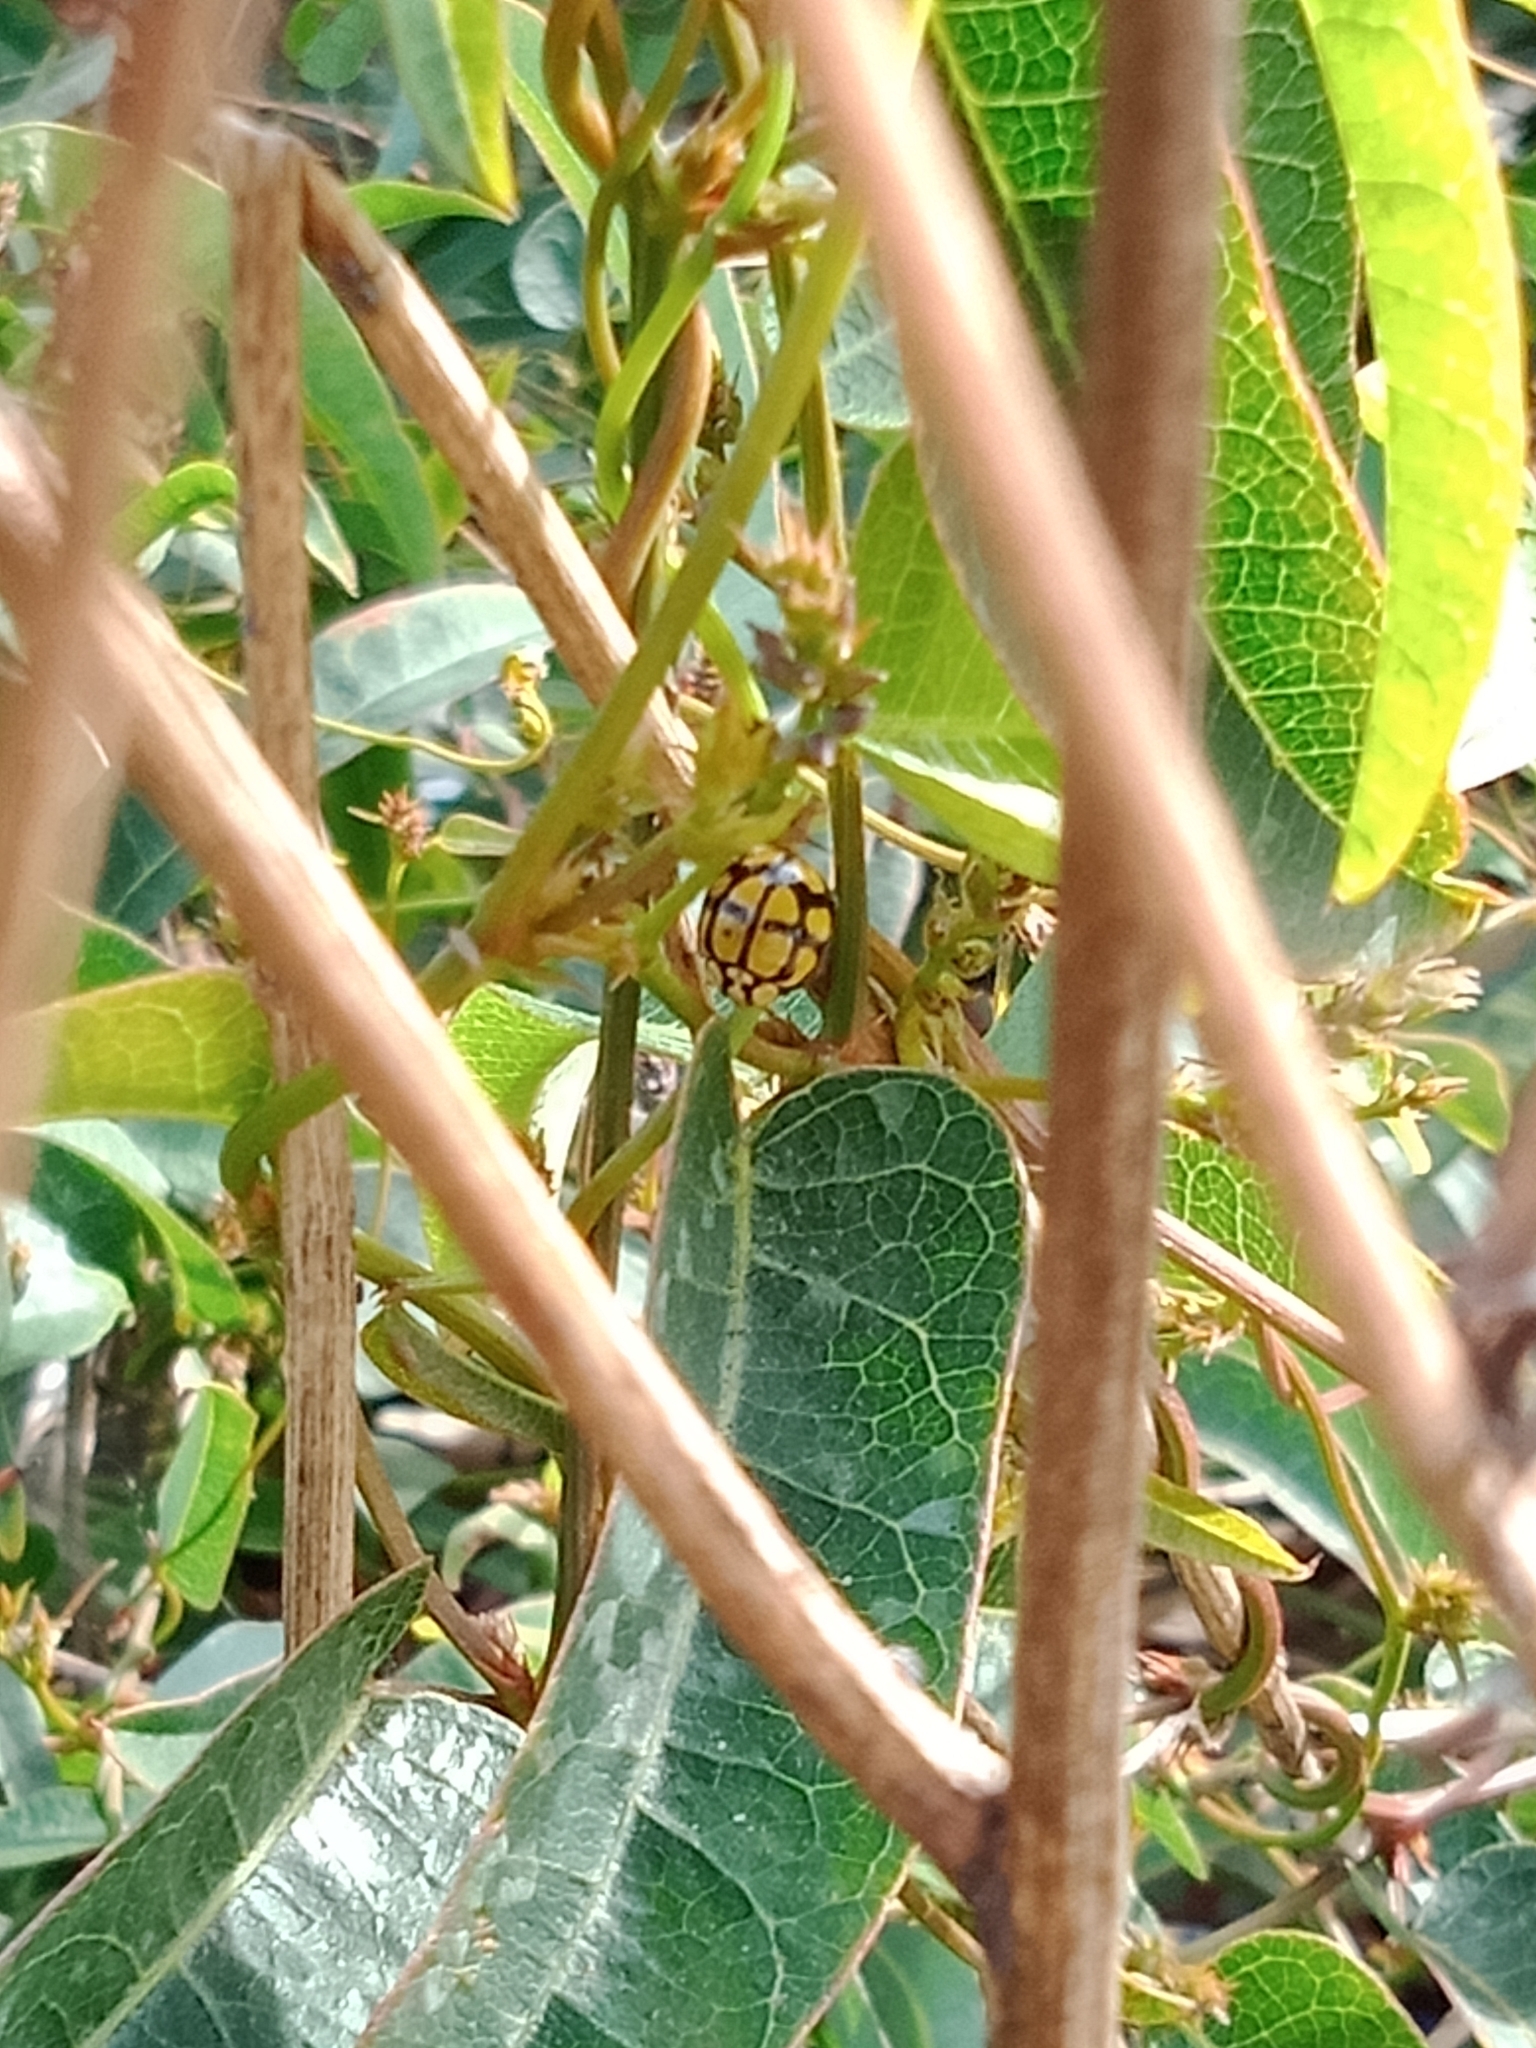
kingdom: Animalia
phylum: Arthropoda
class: Insecta
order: Coleoptera
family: Coccinellidae
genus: Harmonia
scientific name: Harmonia
